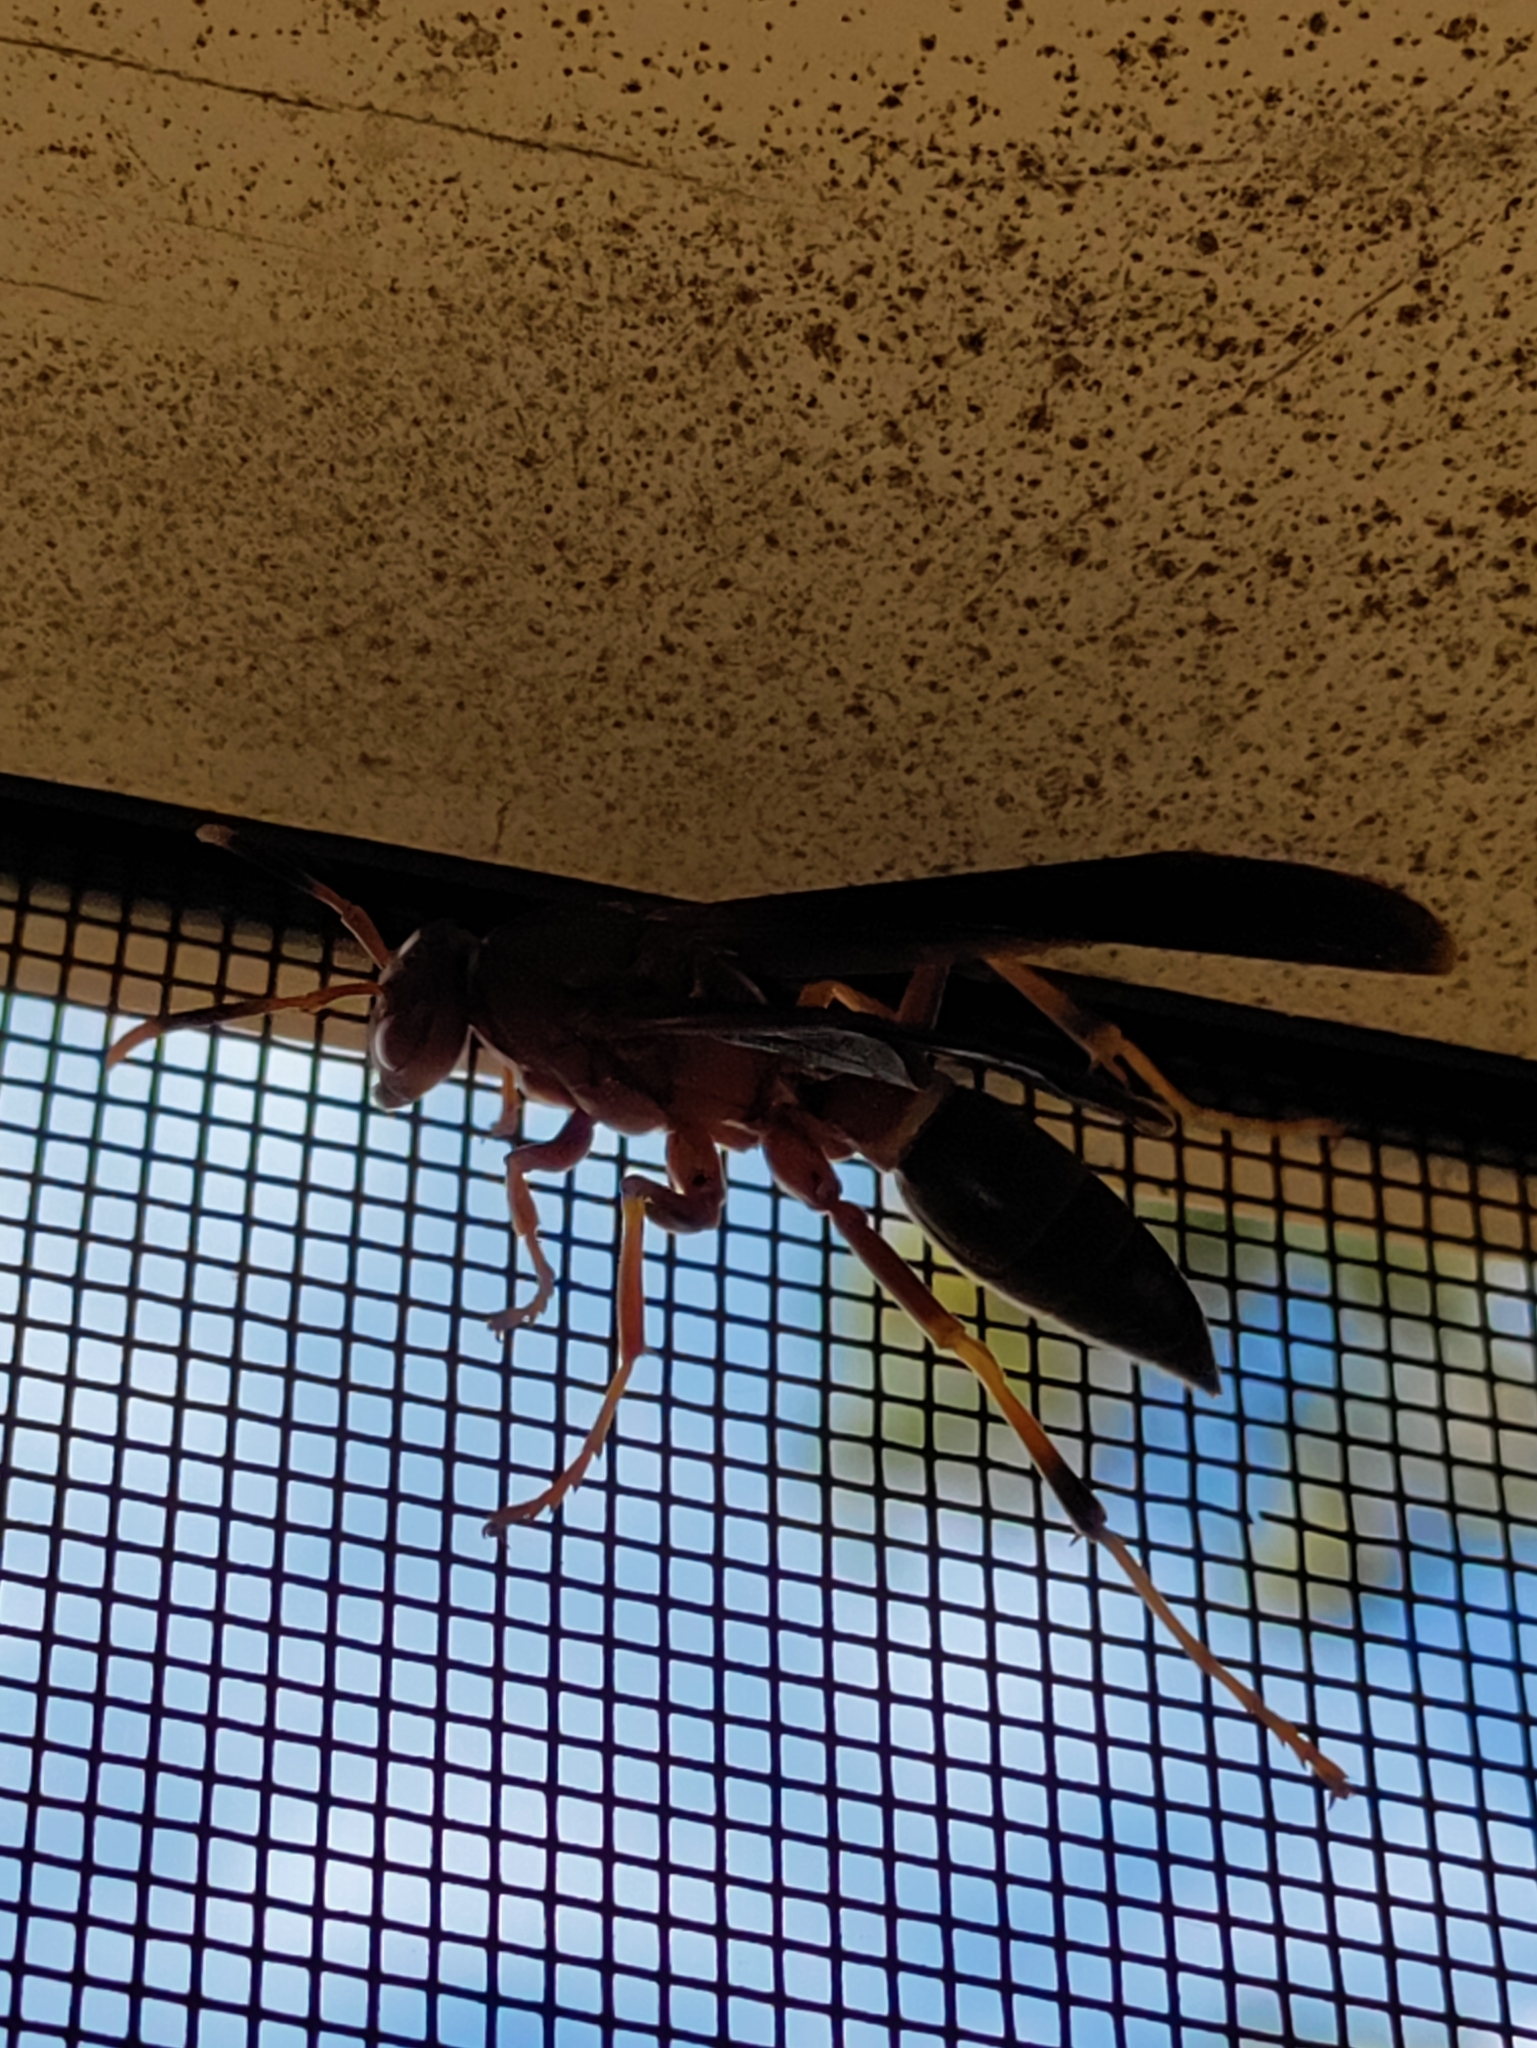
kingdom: Animalia
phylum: Arthropoda
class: Insecta
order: Hymenoptera
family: Eumenidae
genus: Polistes
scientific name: Polistes annularis
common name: Ringed paper wasp
